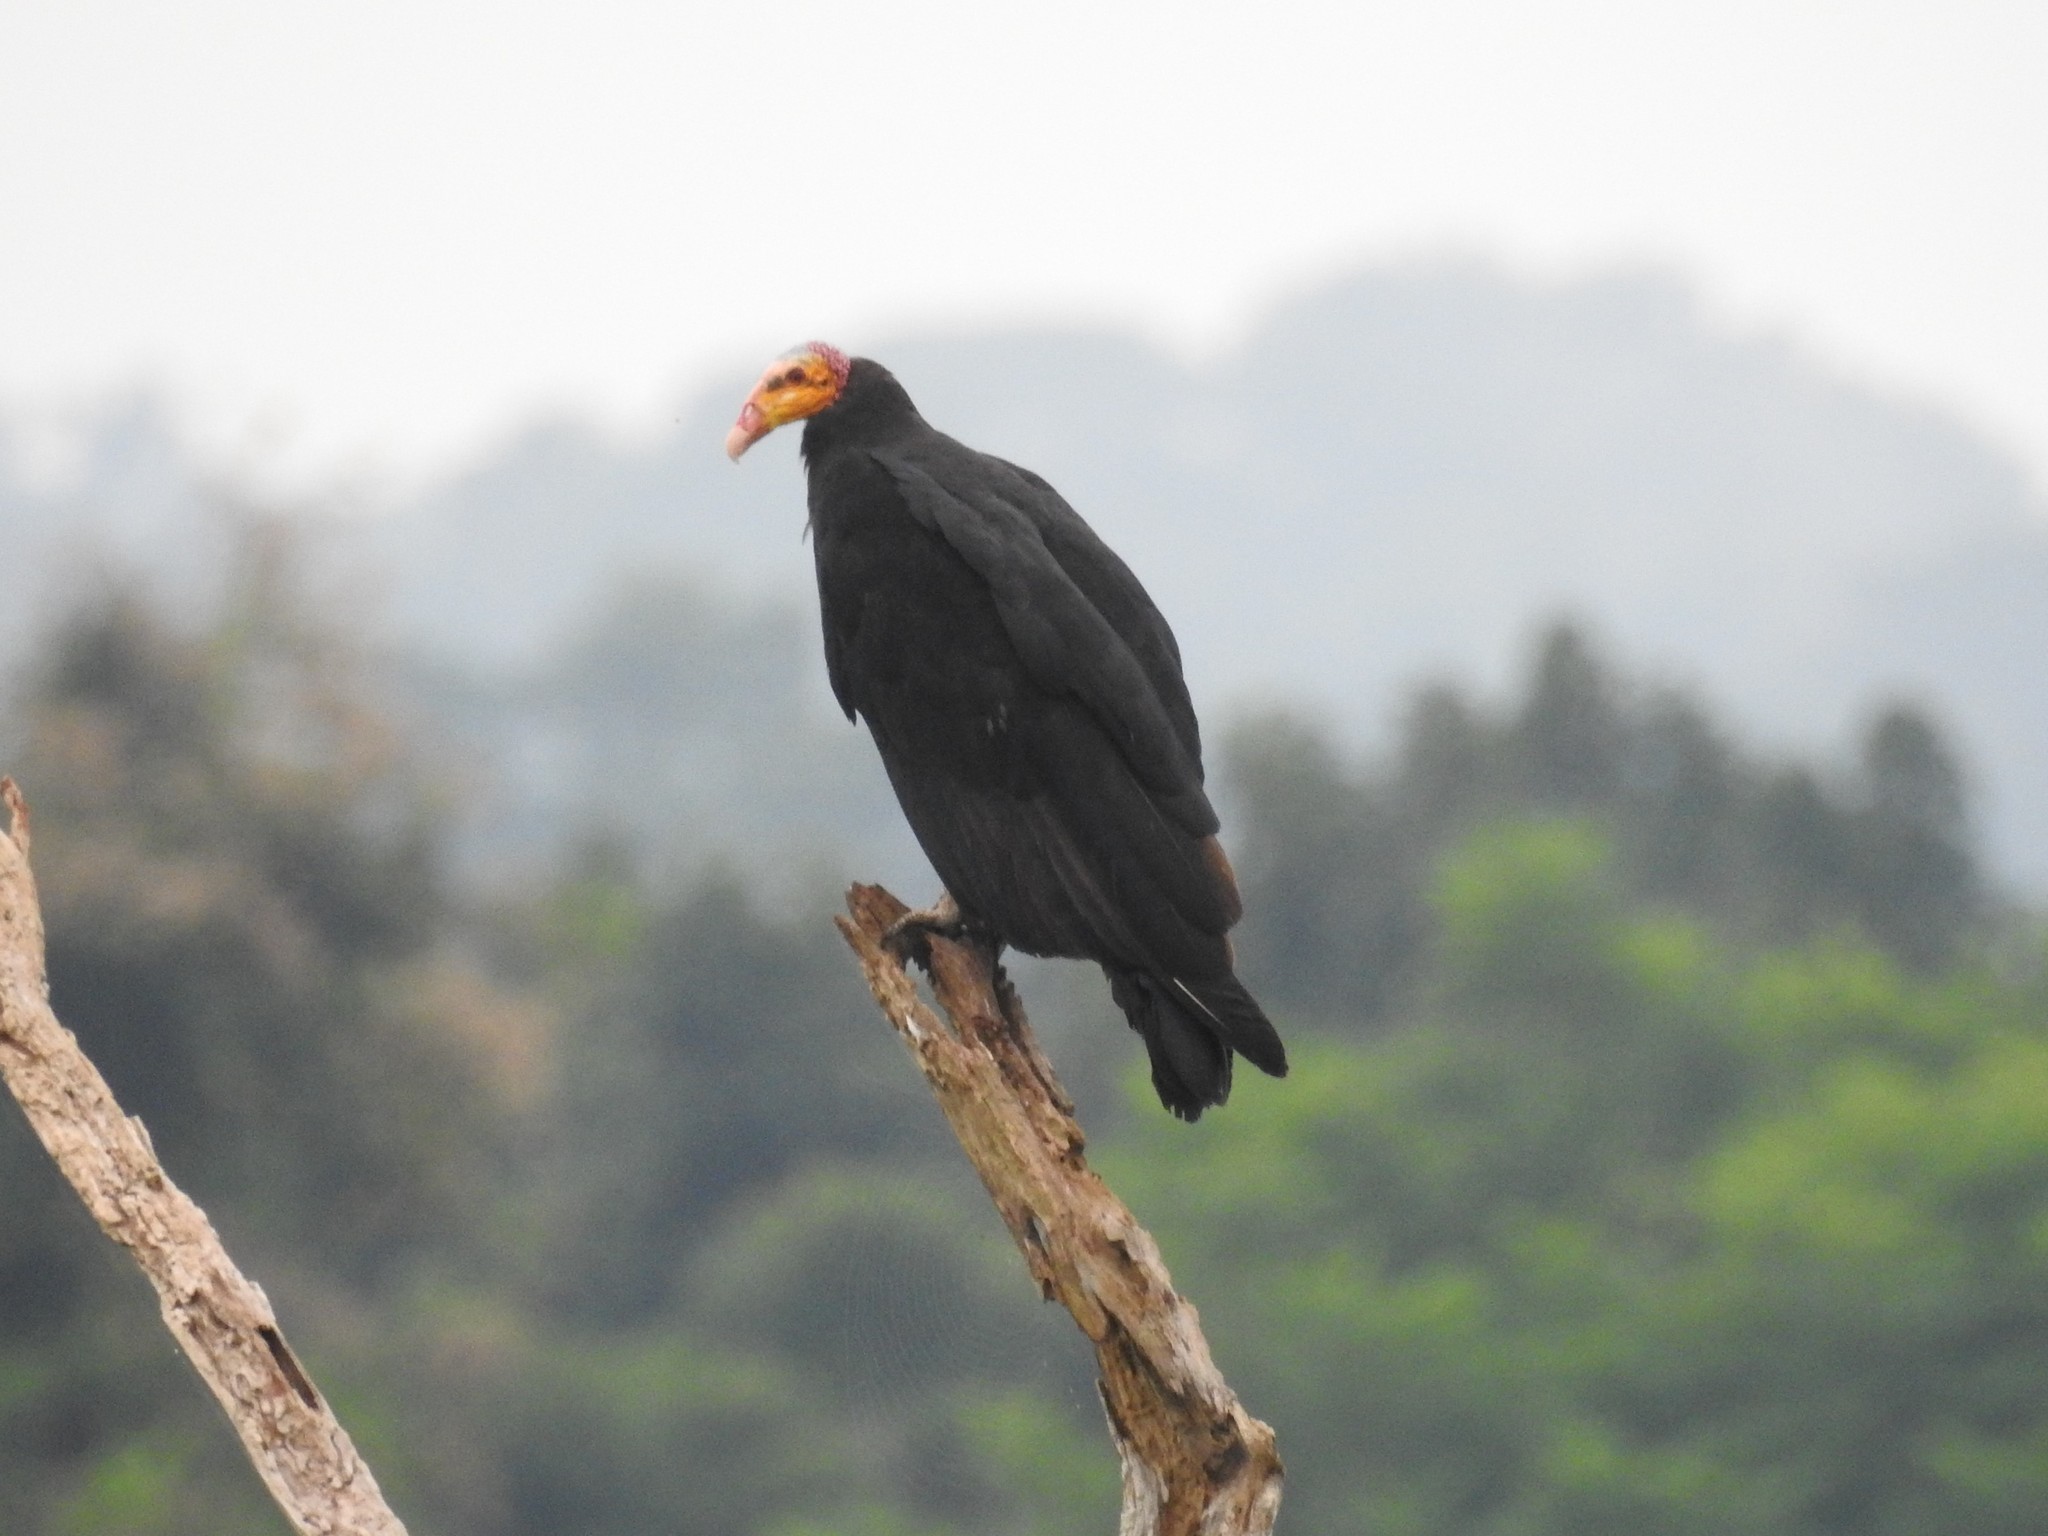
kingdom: Animalia
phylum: Chordata
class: Aves
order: Accipitriformes
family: Cathartidae
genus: Cathartes
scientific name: Cathartes melambrotus
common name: Greater yellow-headed vulture
